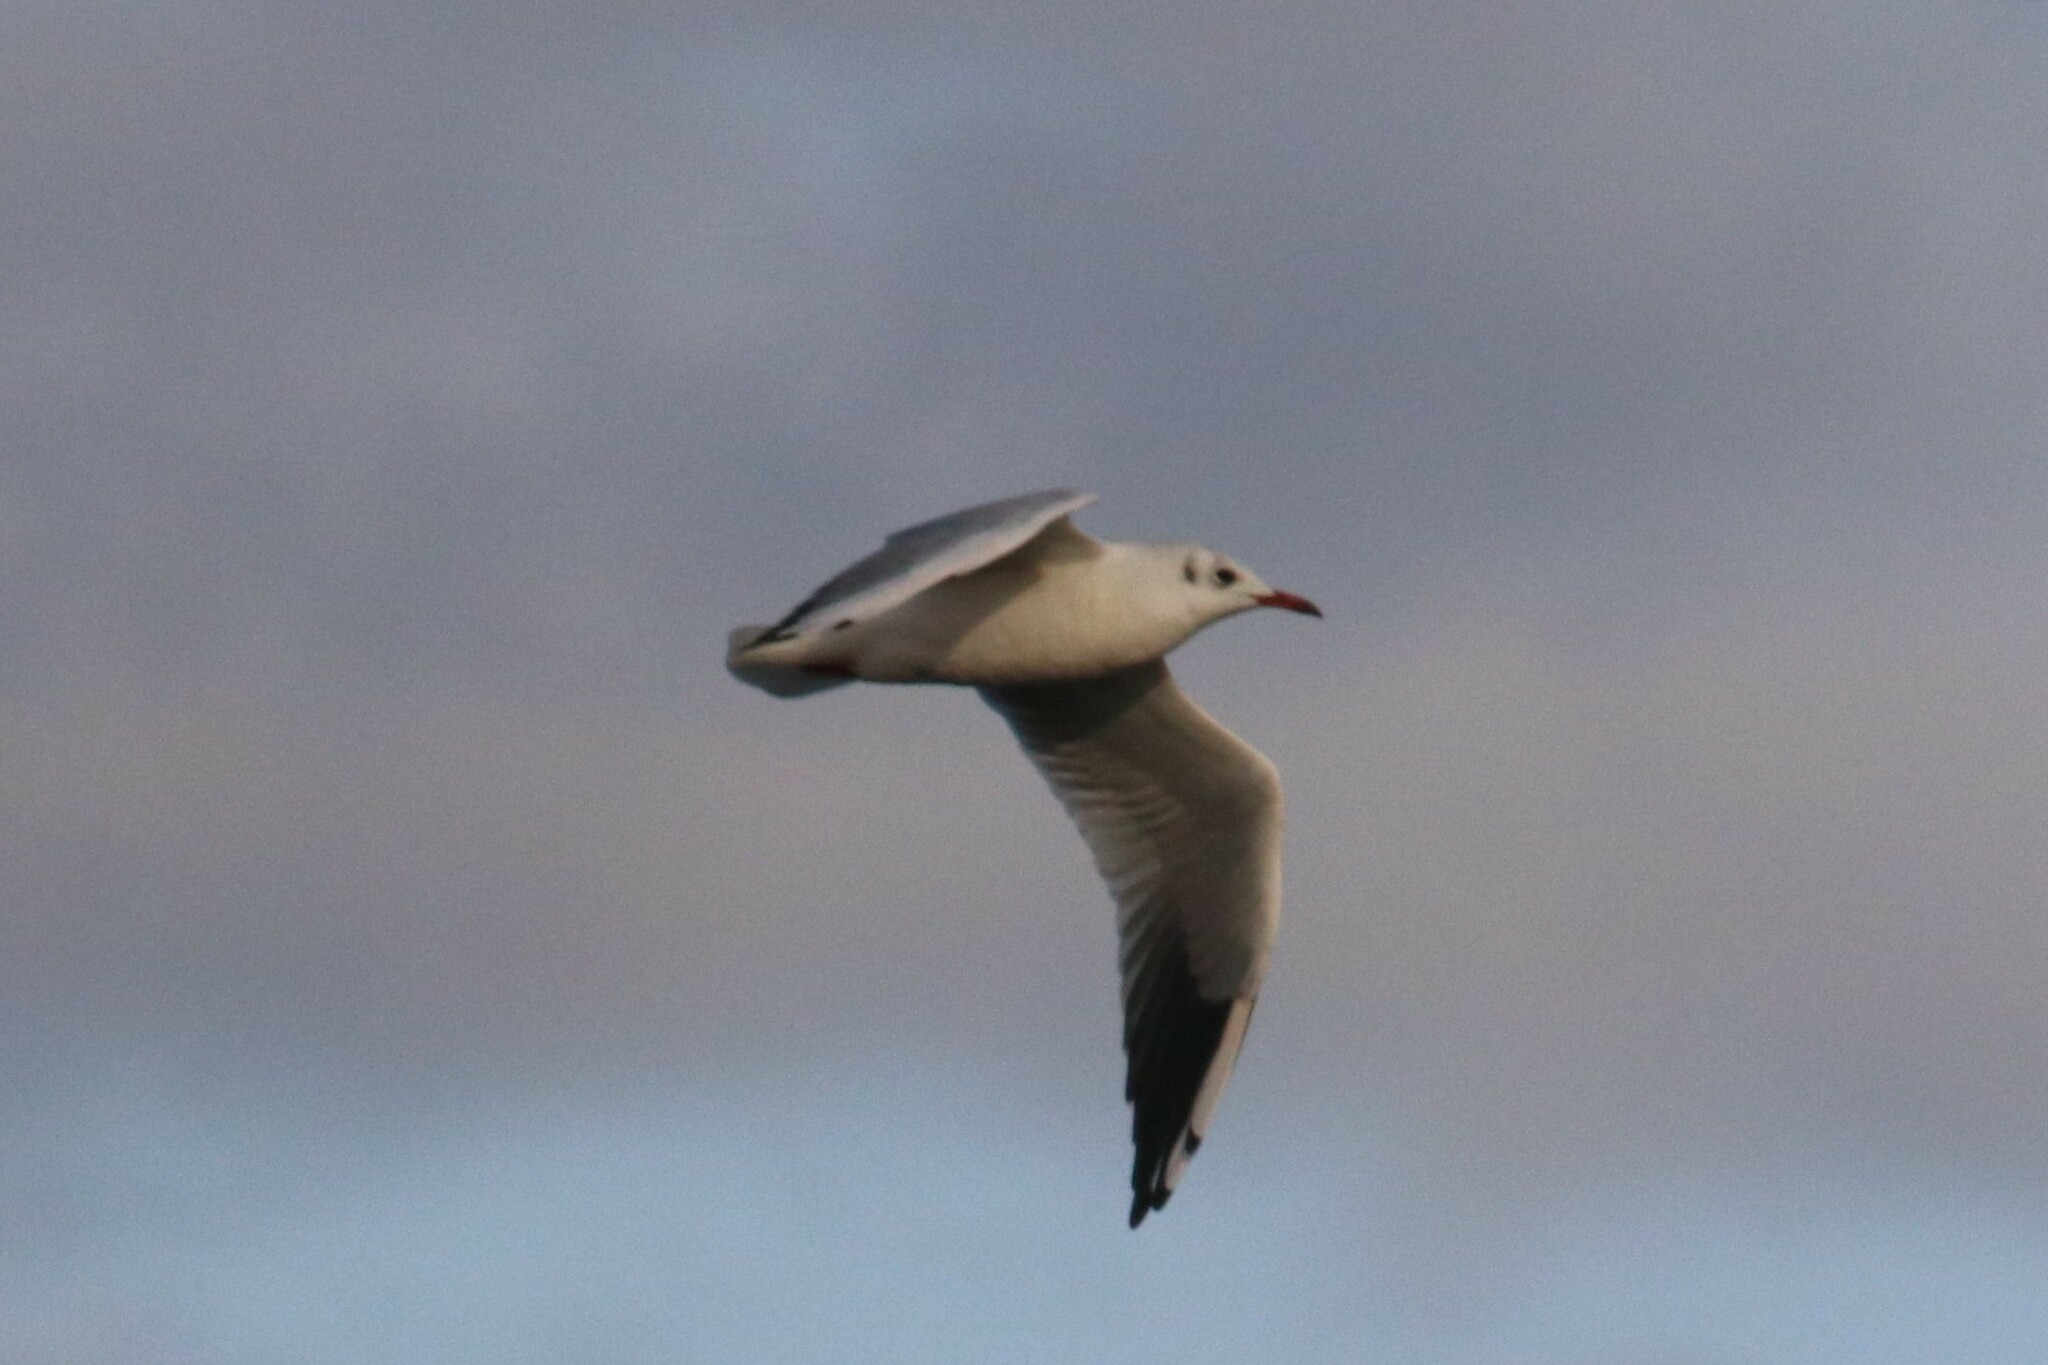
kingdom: Animalia
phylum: Chordata
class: Aves
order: Charadriiformes
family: Laridae
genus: Chroicocephalus
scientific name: Chroicocephalus ridibundus
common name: Black-headed gull
